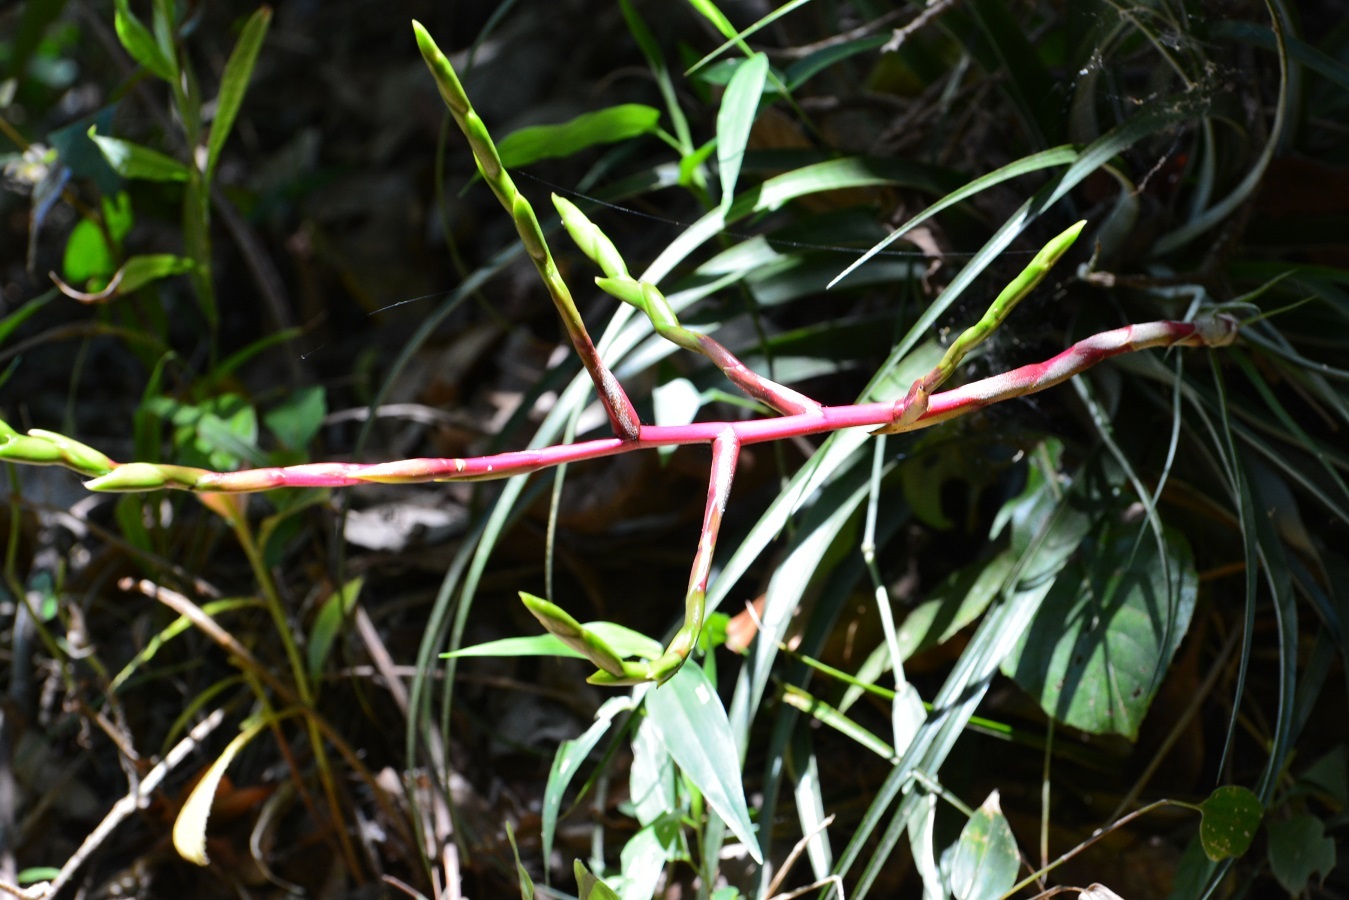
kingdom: Plantae
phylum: Tracheophyta
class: Liliopsida
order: Poales
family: Bromeliaceae
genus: Tillandsia
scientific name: Tillandsia elusiva
